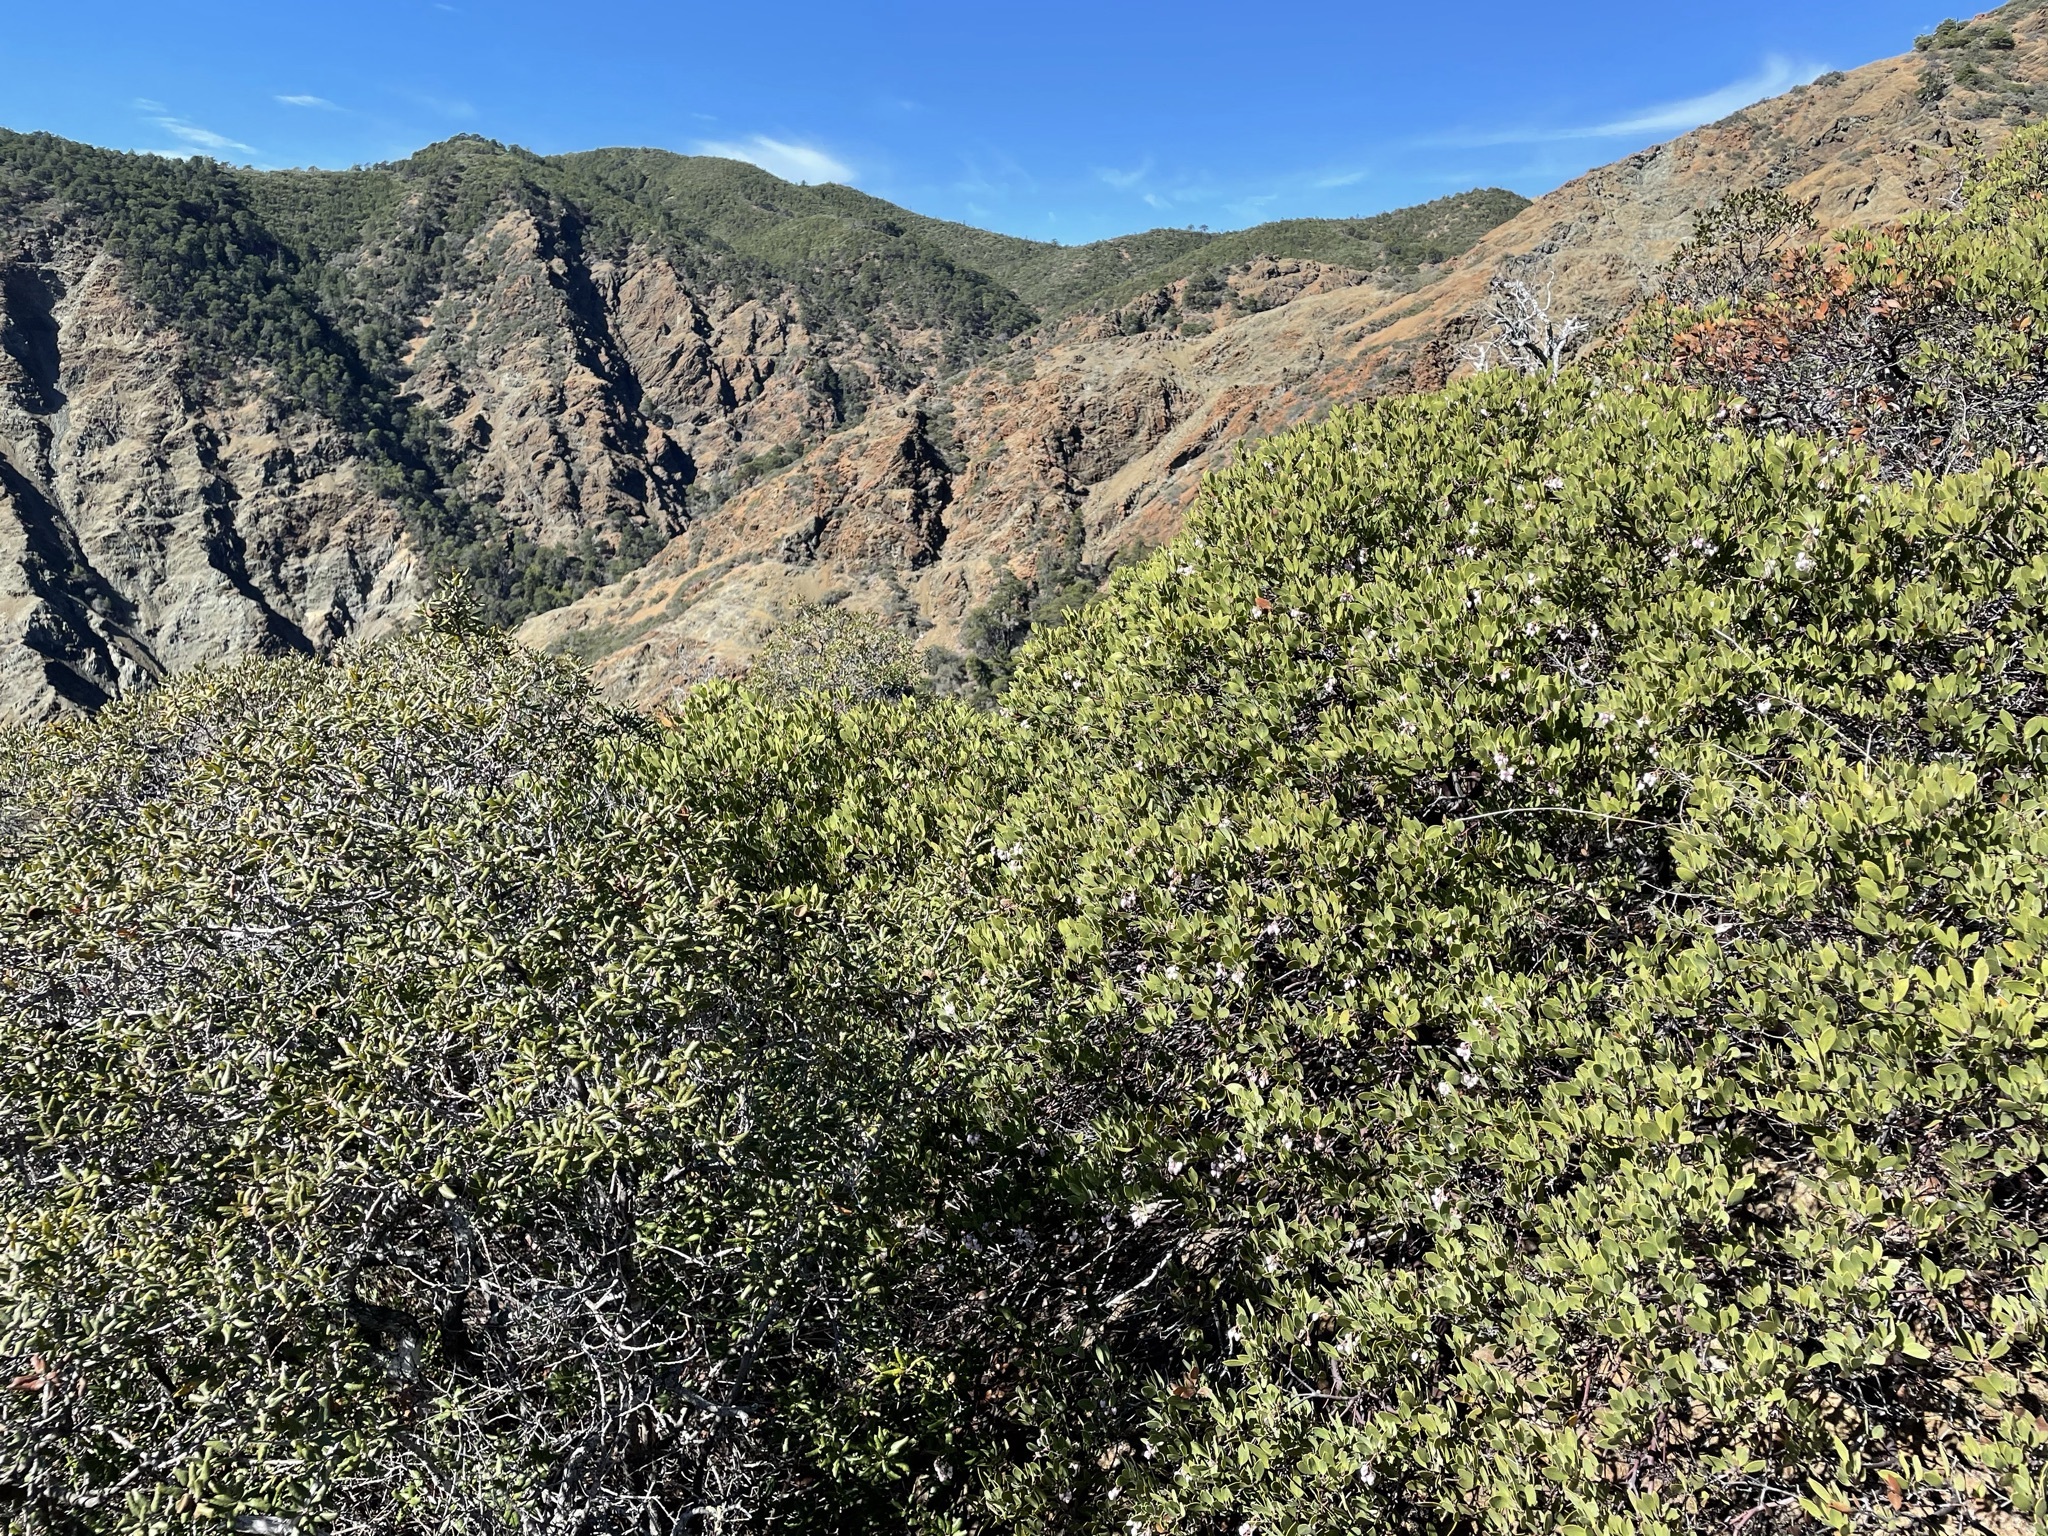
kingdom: Plantae
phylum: Tracheophyta
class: Magnoliopsida
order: Ericales
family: Ericaceae
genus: Arctostaphylos
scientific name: Arctostaphylos bakeri
